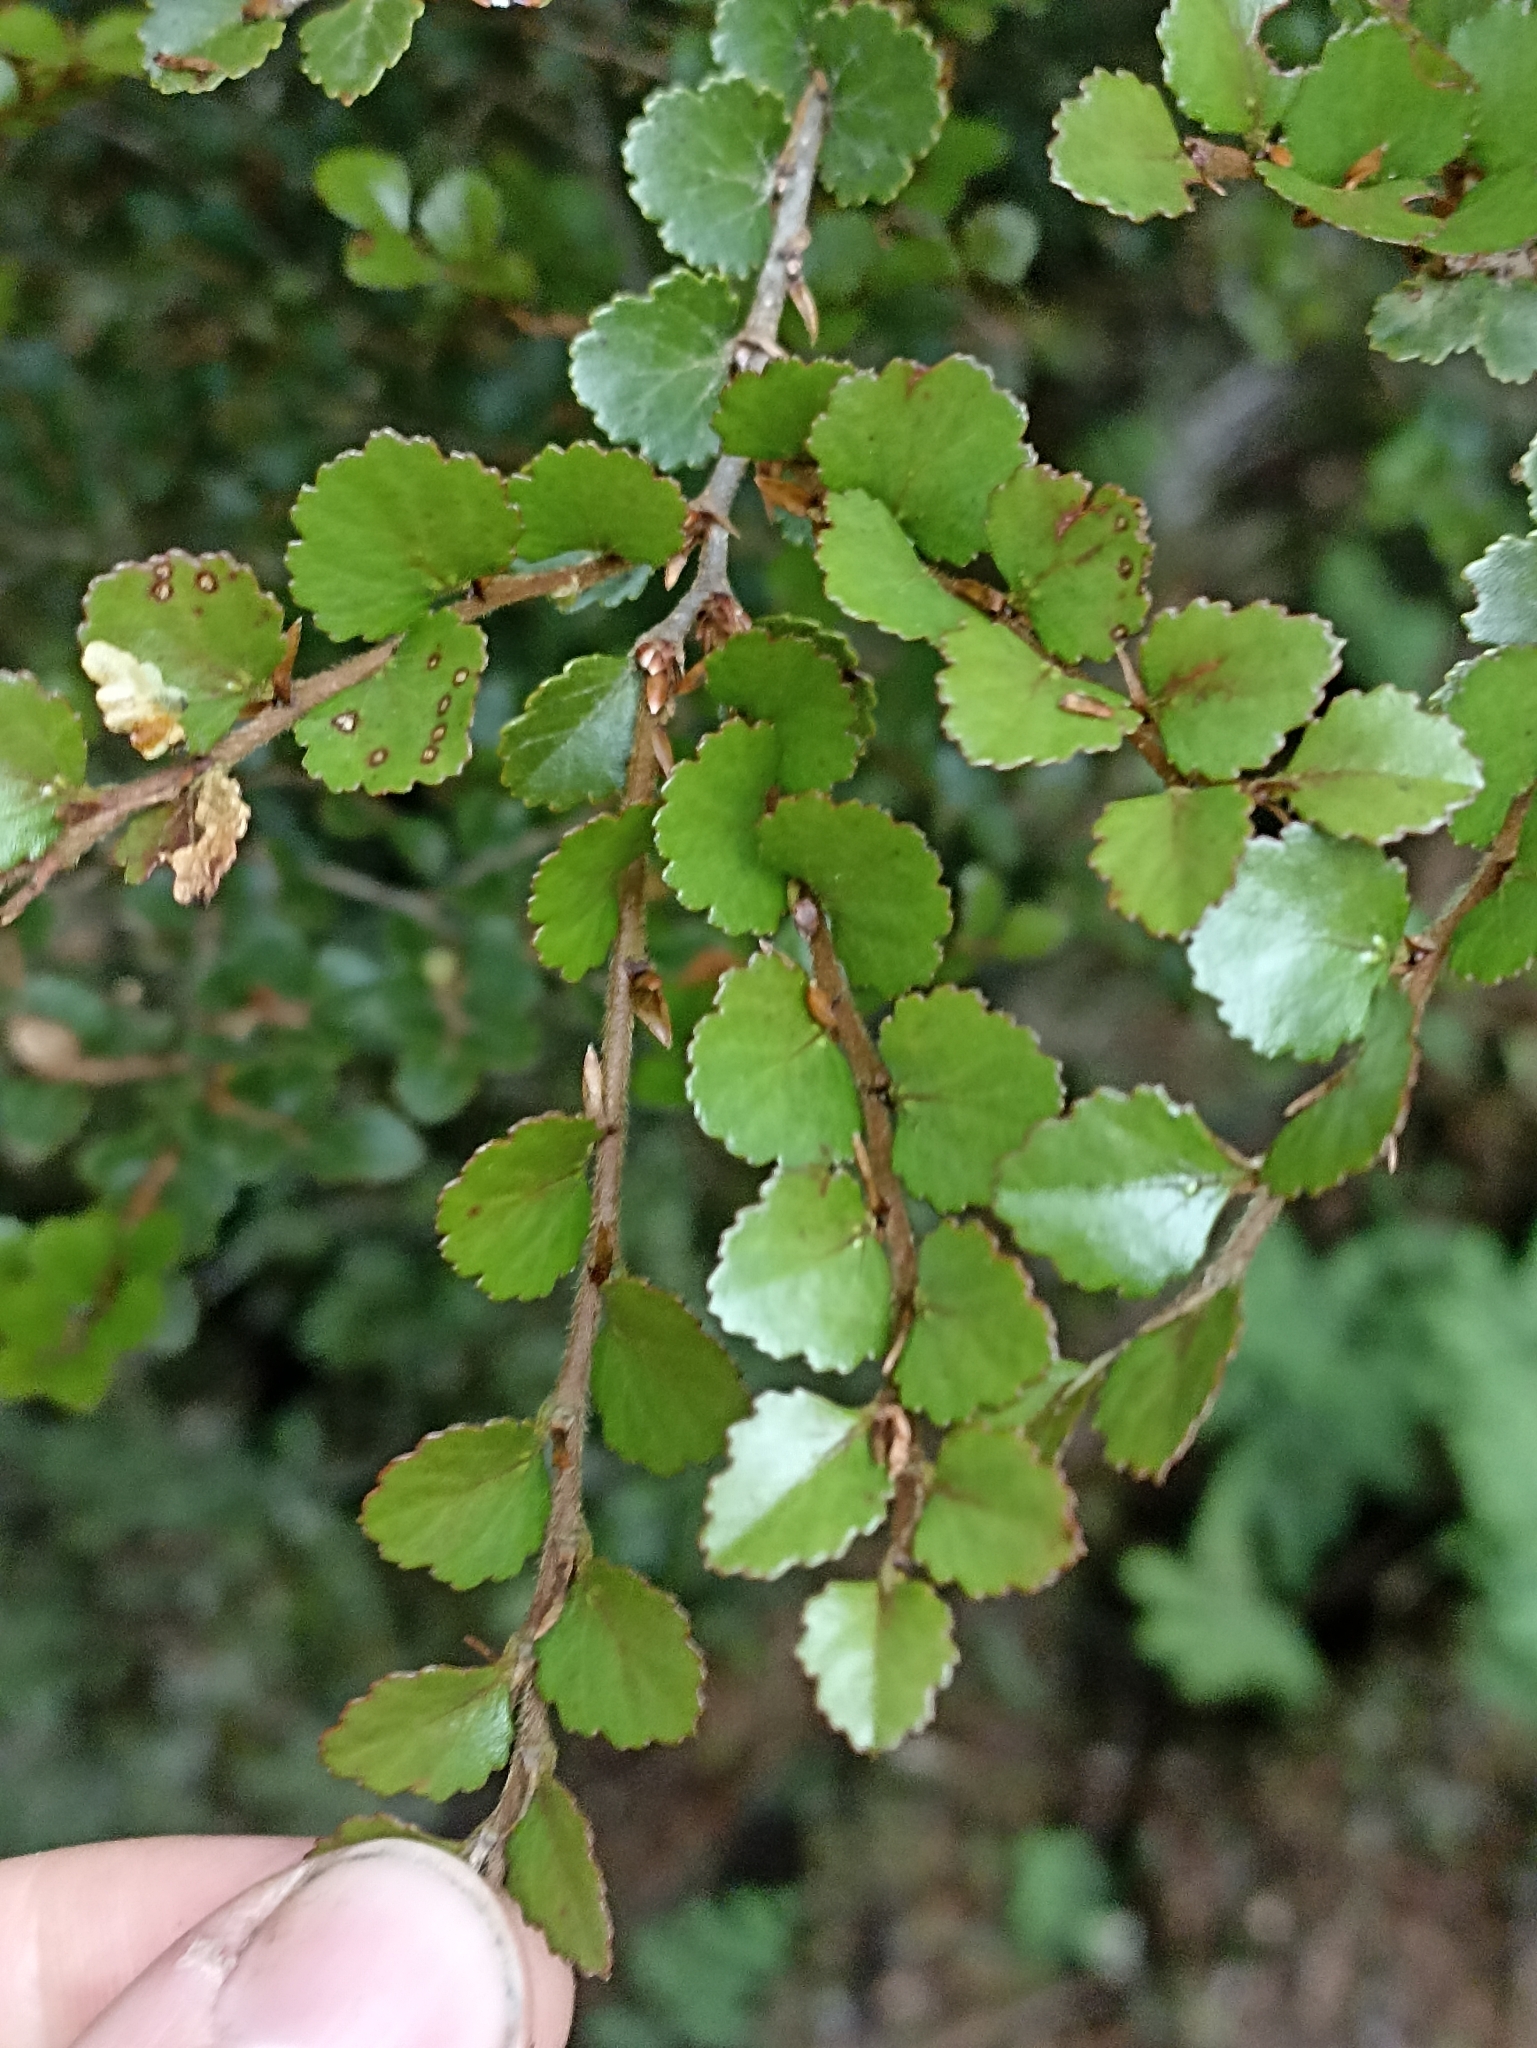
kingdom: Plantae
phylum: Tracheophyta
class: Magnoliopsida
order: Fagales
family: Nothofagaceae
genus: Nothofagus
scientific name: Nothofagus menziesii
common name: Silver beech
